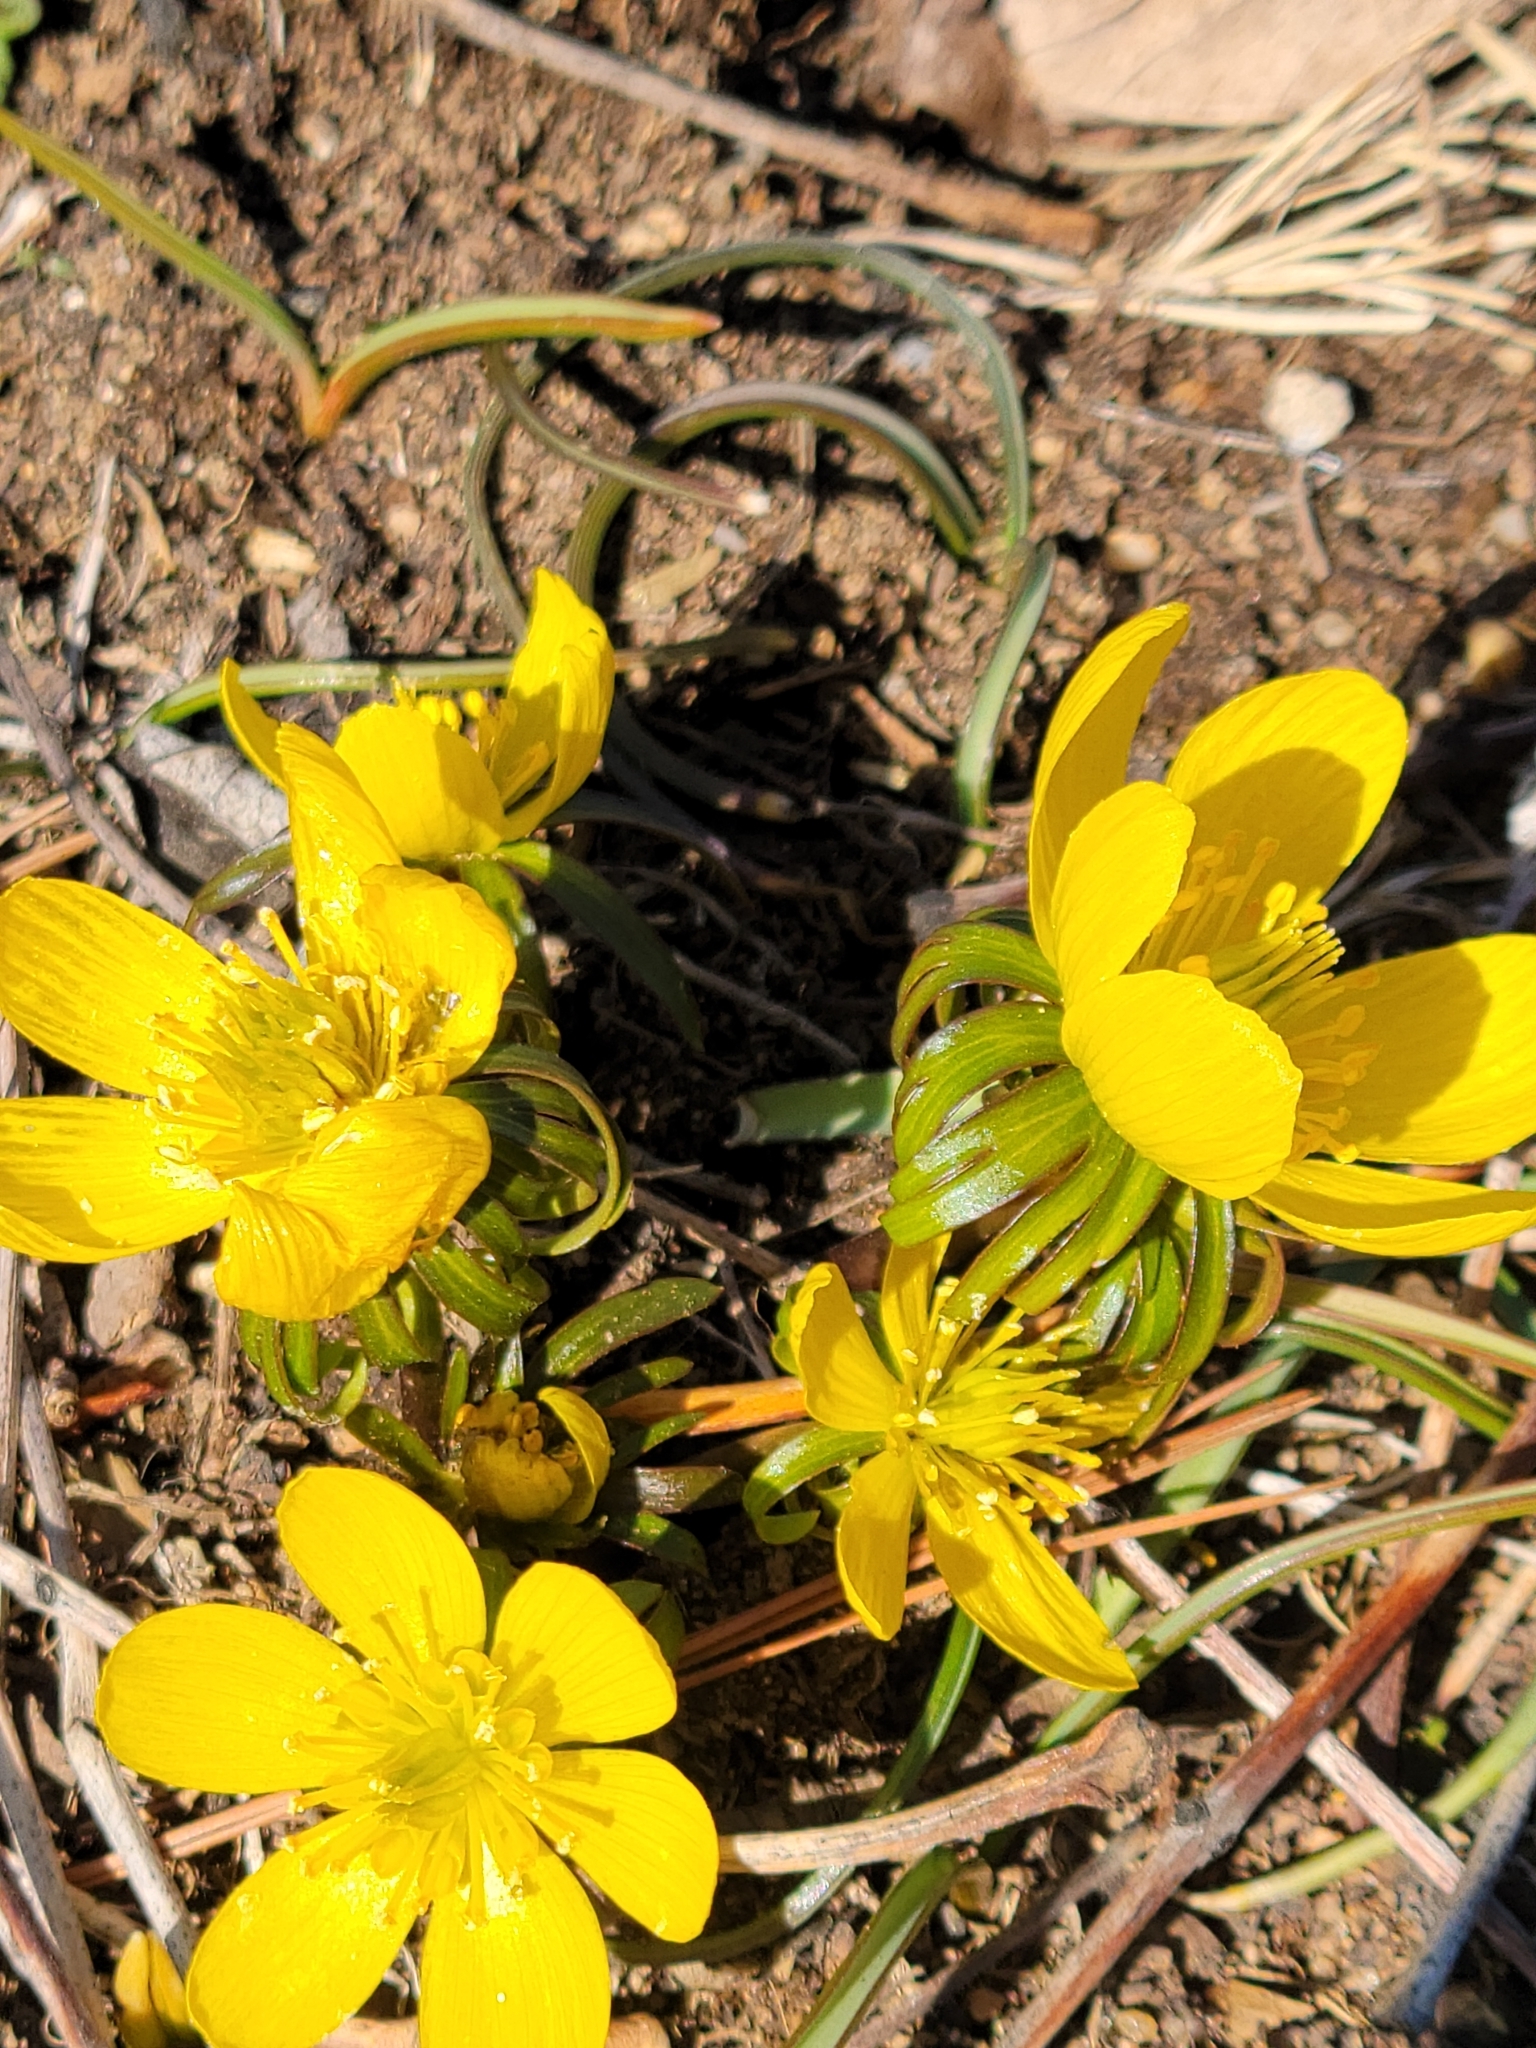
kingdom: Plantae
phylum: Tracheophyta
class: Magnoliopsida
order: Ranunculales
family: Ranunculaceae
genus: Eranthis
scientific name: Eranthis hyemalis
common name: Winter aconite
